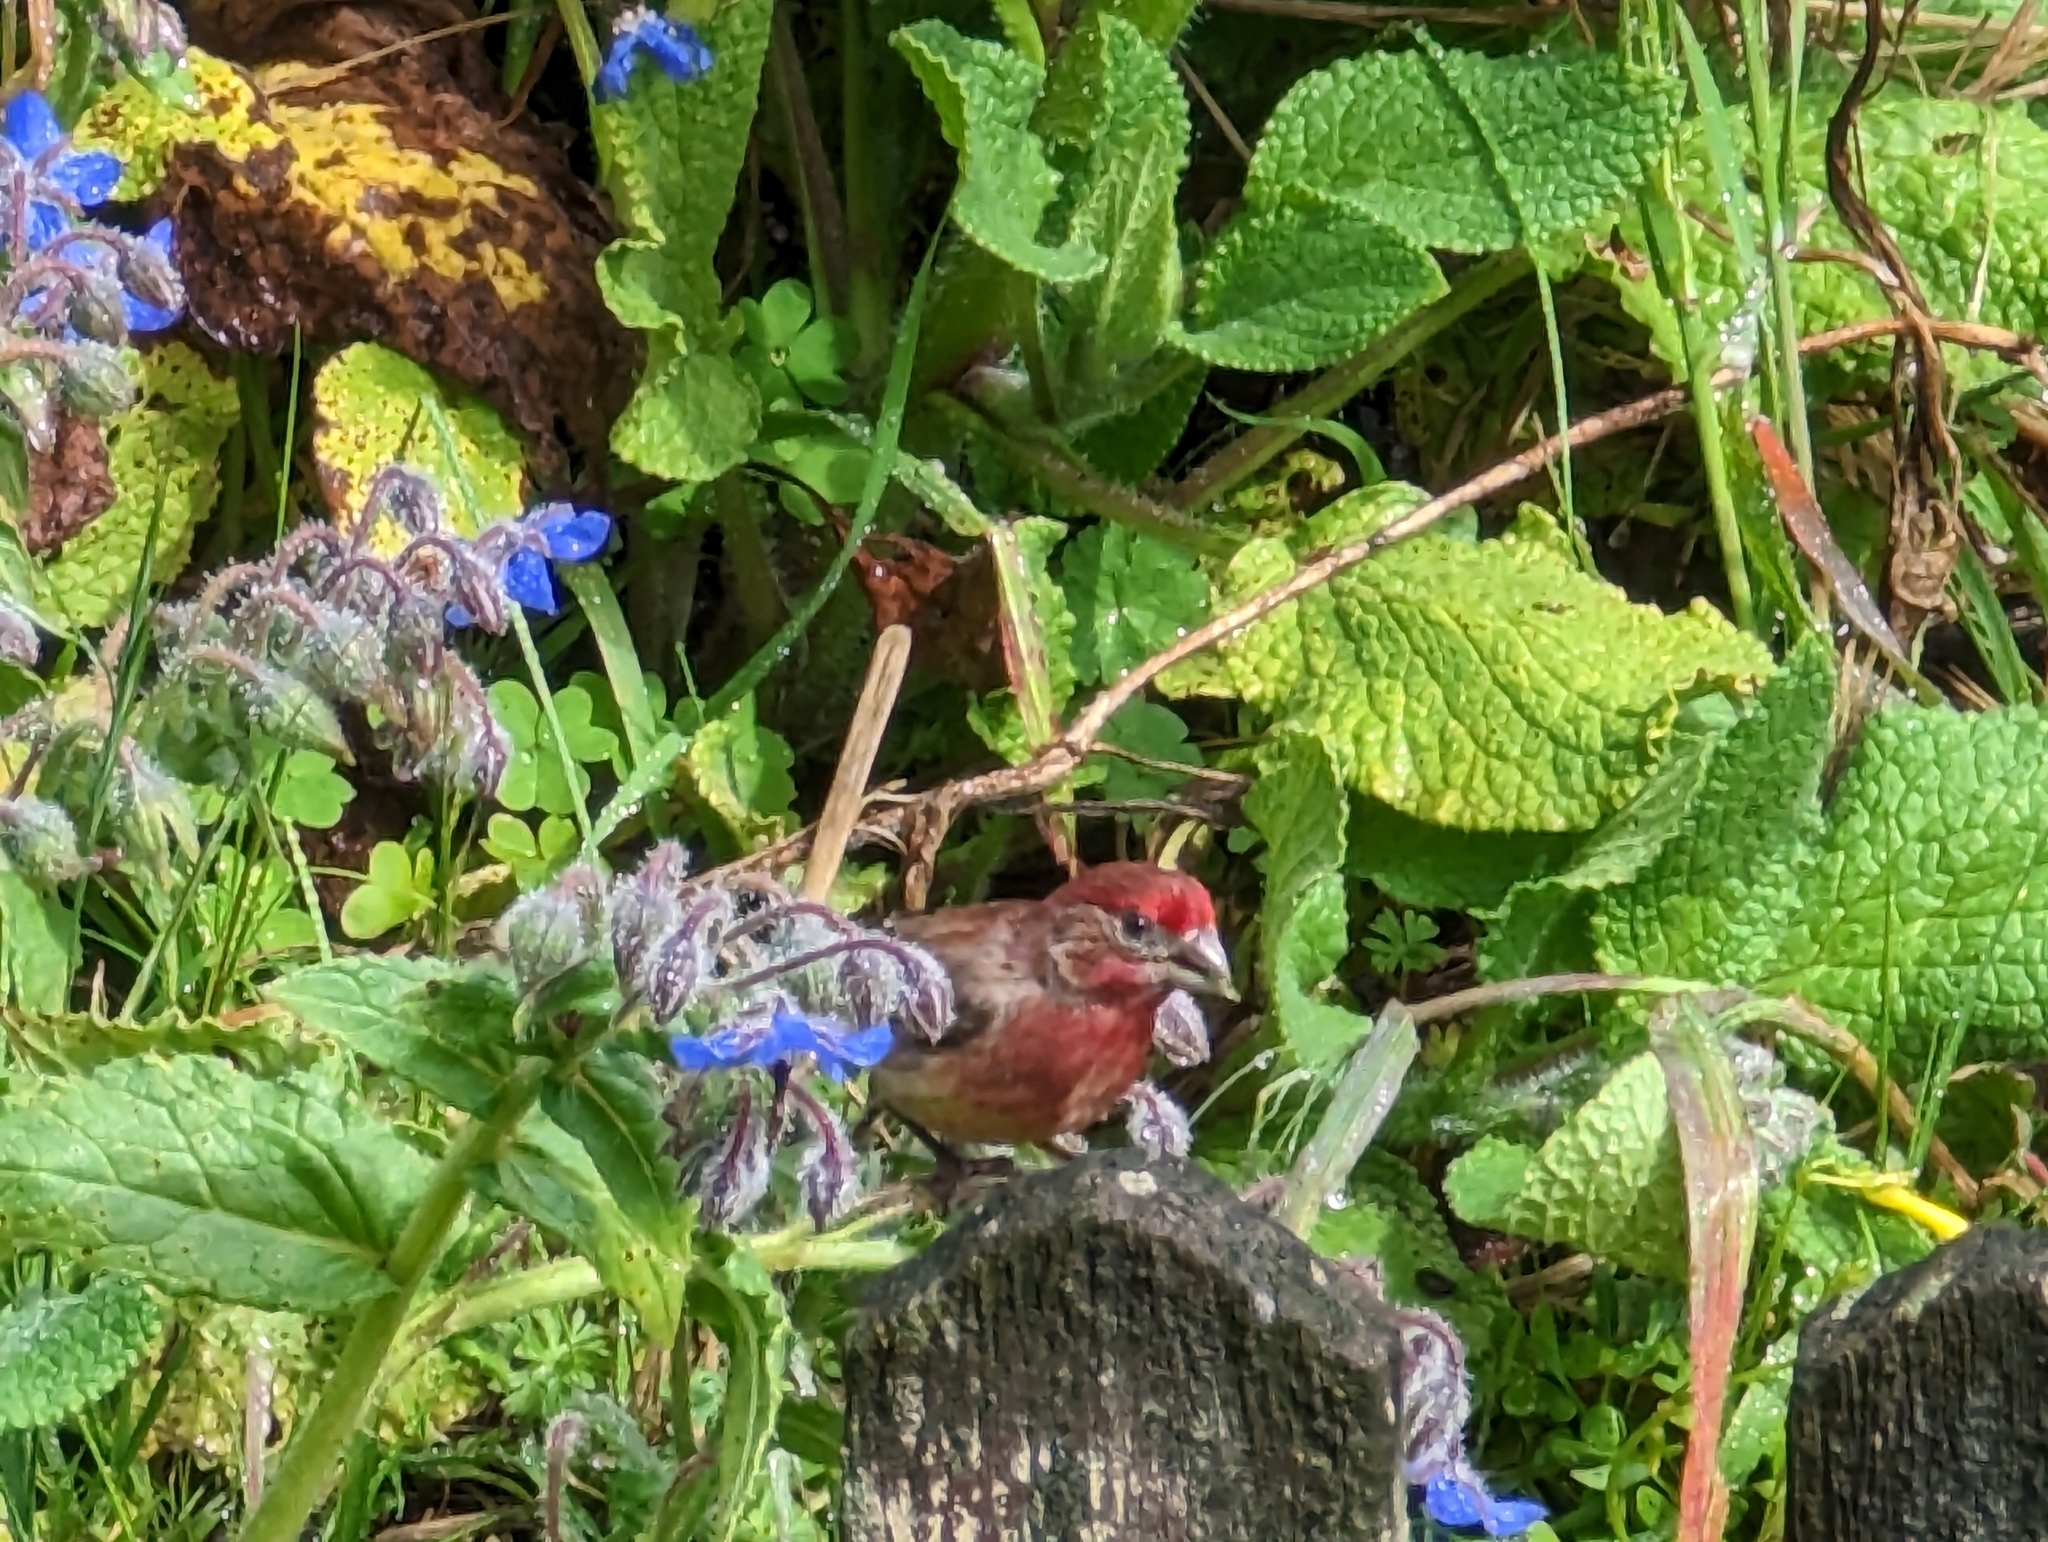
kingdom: Animalia
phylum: Chordata
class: Aves
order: Passeriformes
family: Fringillidae
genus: Haemorhous
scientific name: Haemorhous mexicanus
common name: House finch
